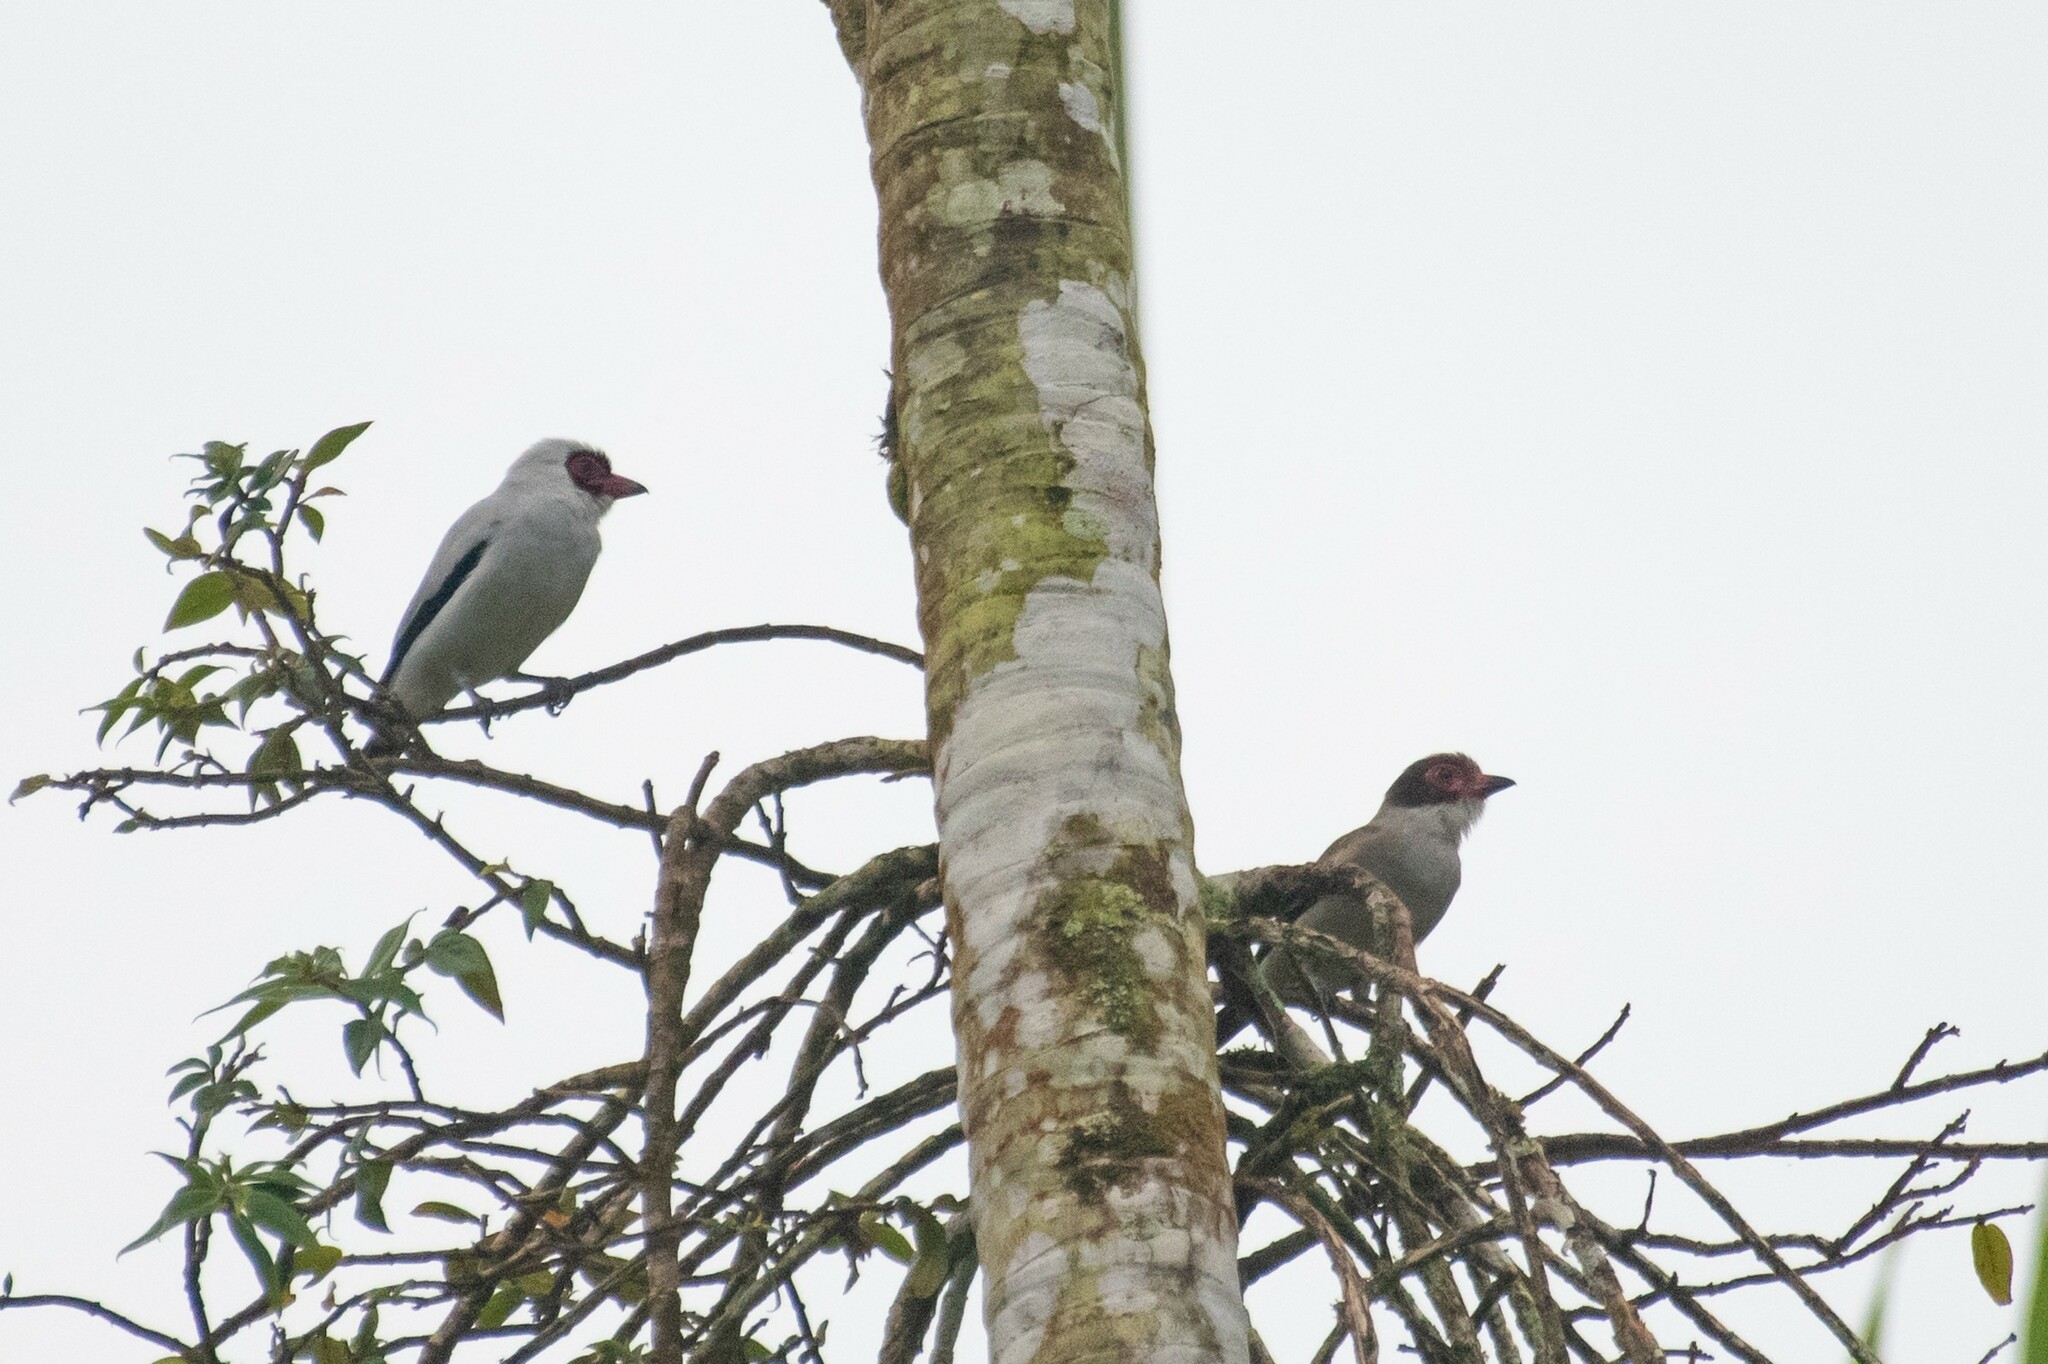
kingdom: Animalia
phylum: Chordata
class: Aves
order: Passeriformes
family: Cotingidae
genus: Tityra
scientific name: Tityra semifasciata
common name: Masked tityra
